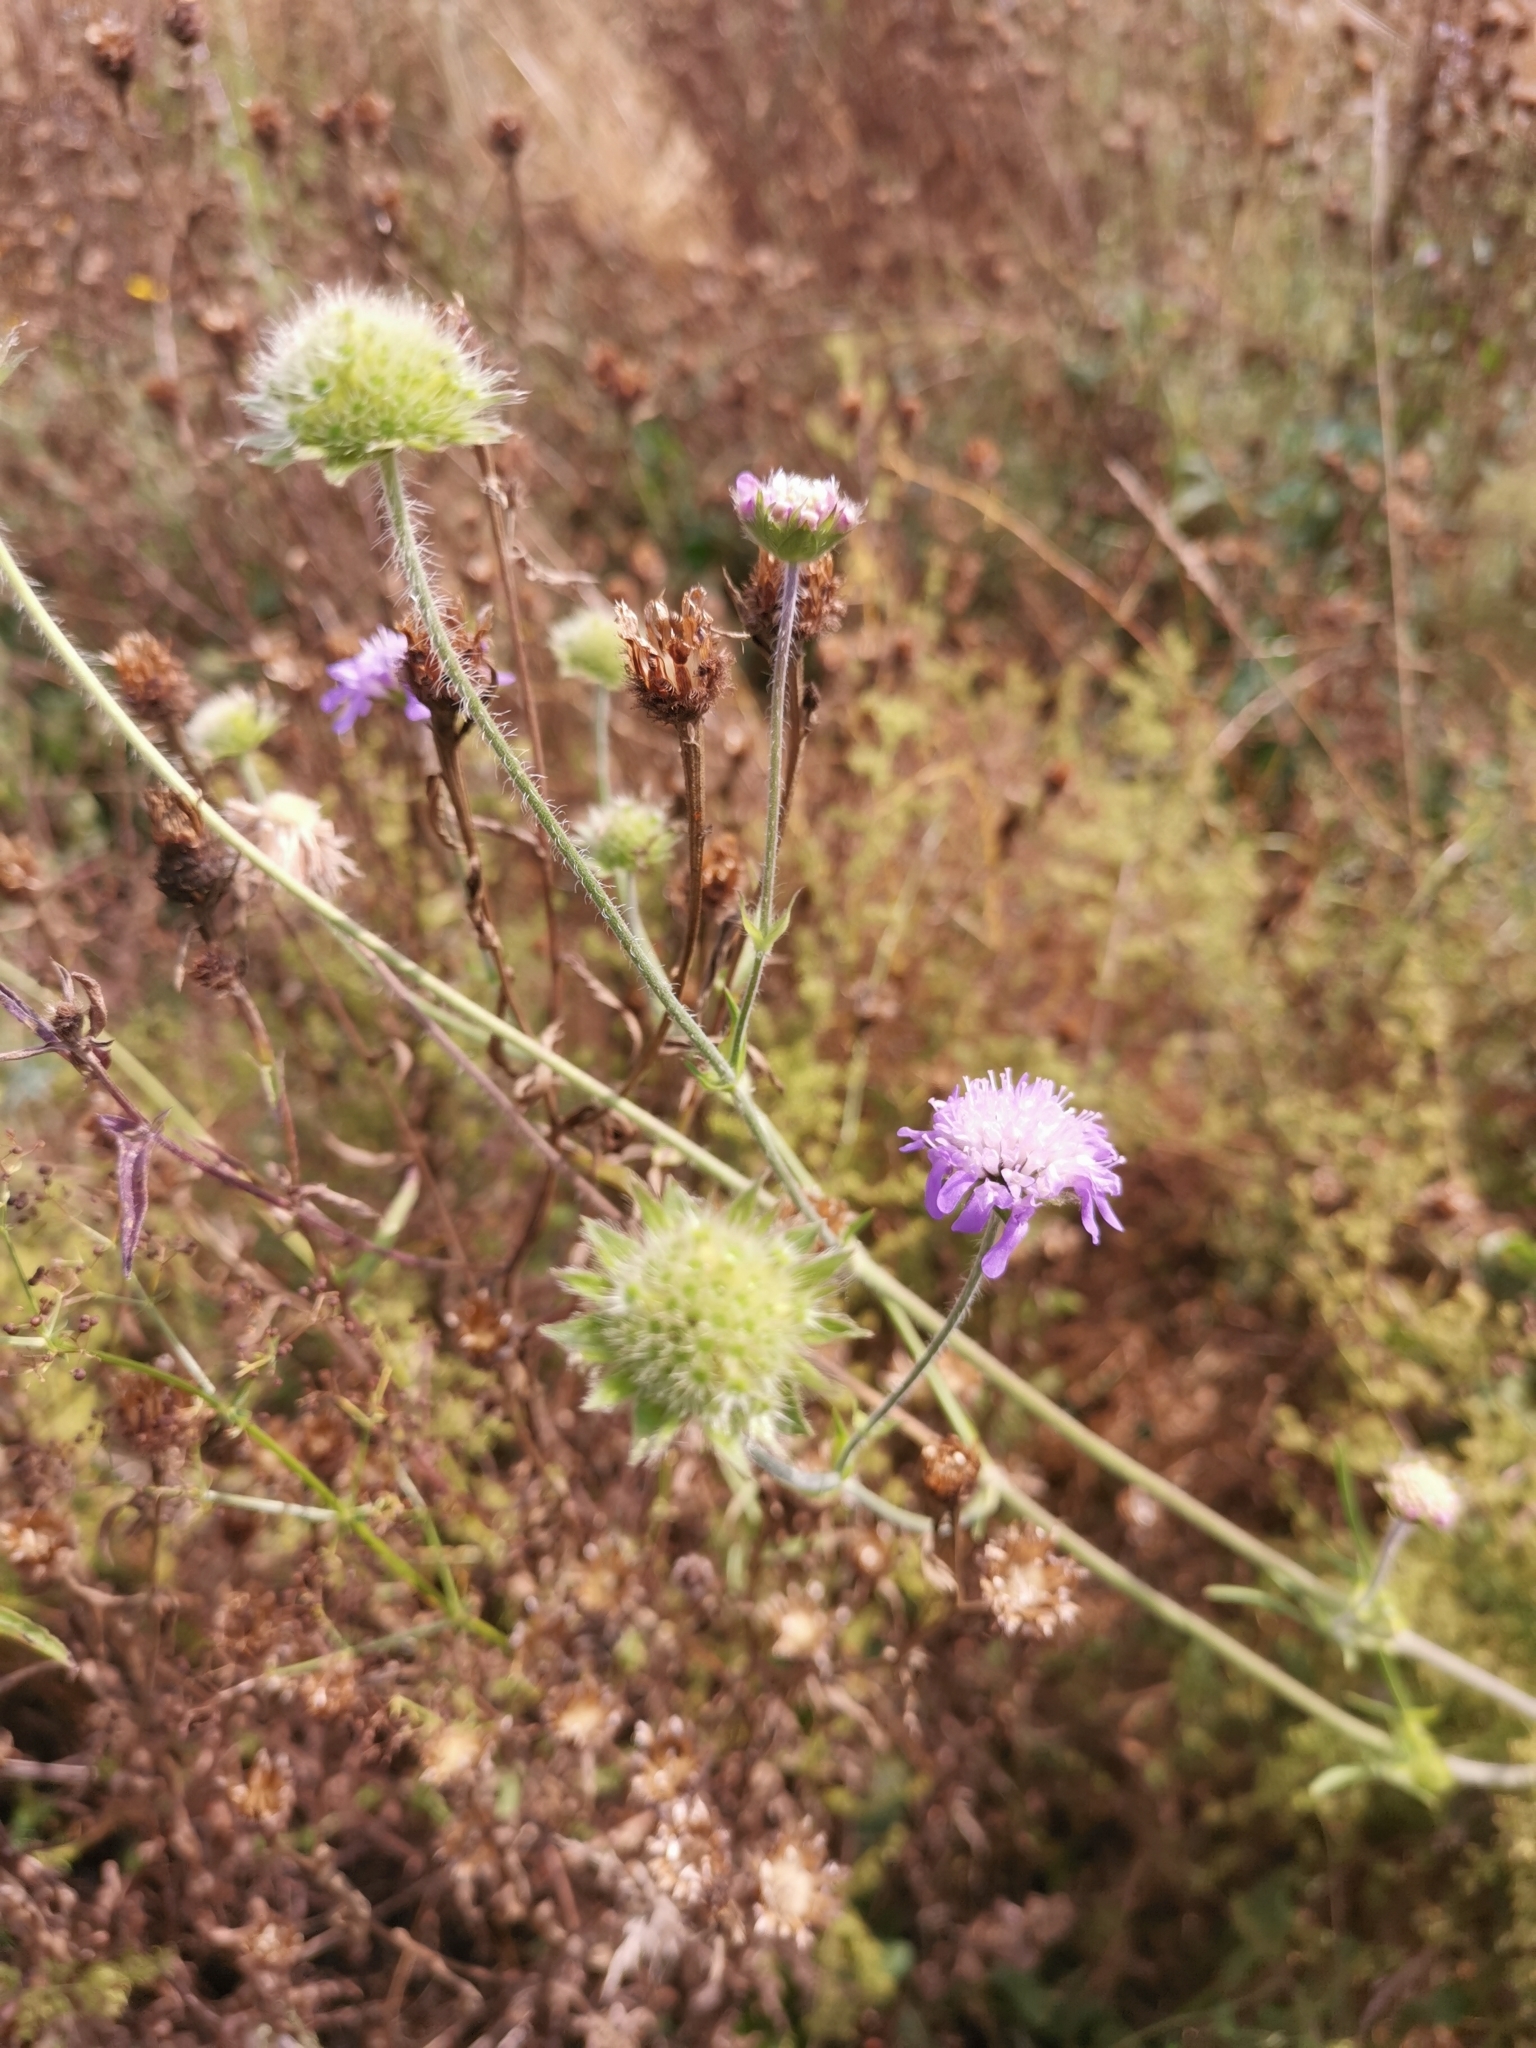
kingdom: Plantae
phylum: Tracheophyta
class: Magnoliopsida
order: Dipsacales
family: Caprifoliaceae
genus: Knautia
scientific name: Knautia arvensis
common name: Field scabiosa
